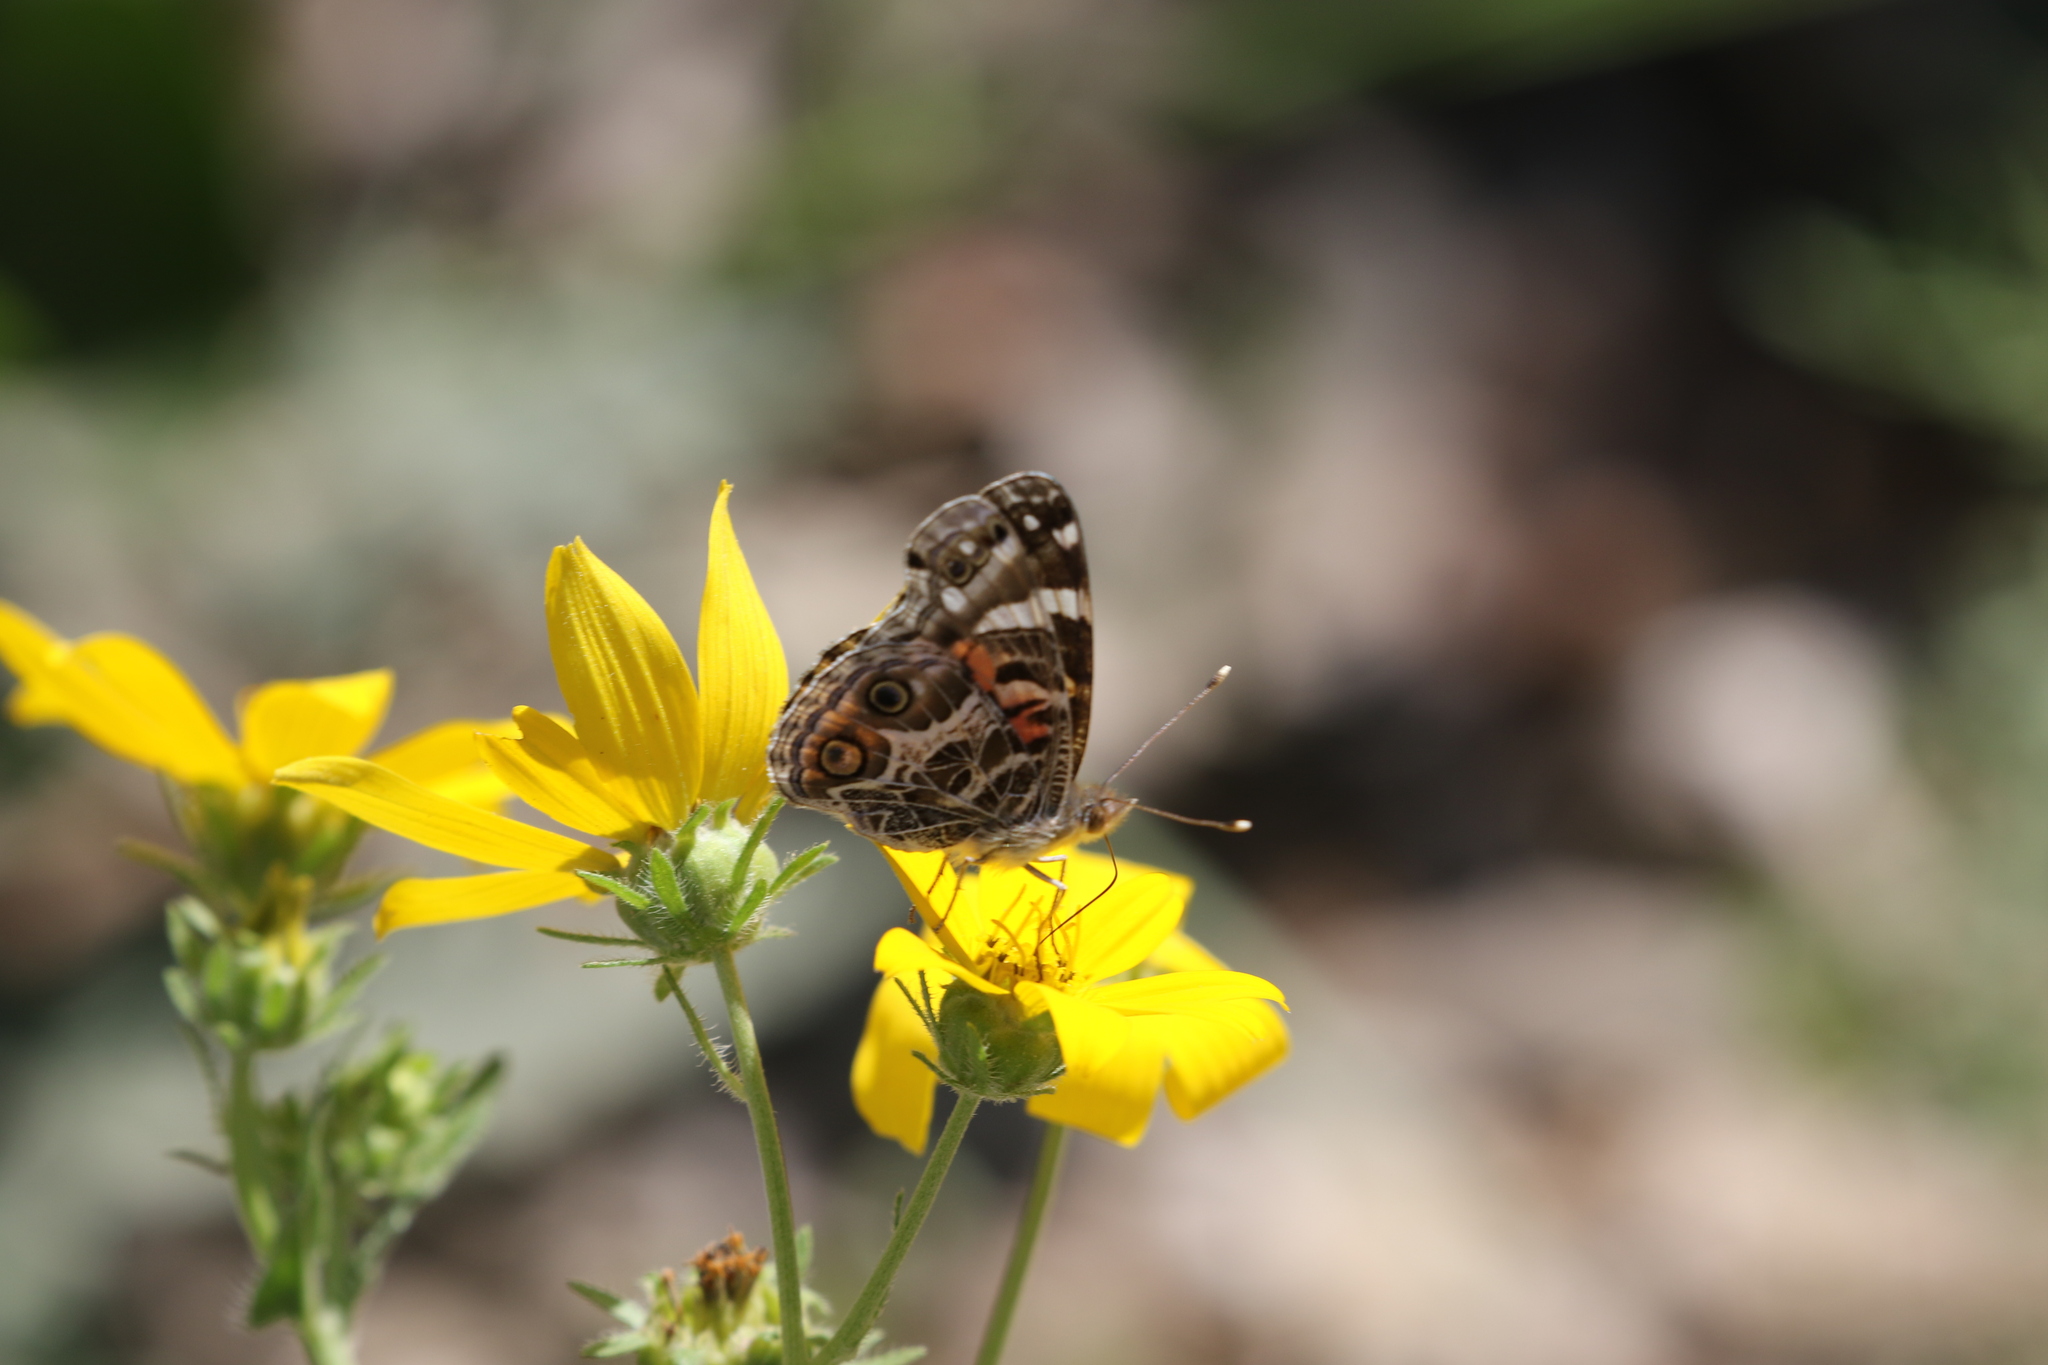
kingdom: Animalia
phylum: Arthropoda
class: Insecta
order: Lepidoptera
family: Nymphalidae
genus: Vanessa
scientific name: Vanessa virginiensis
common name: American lady
